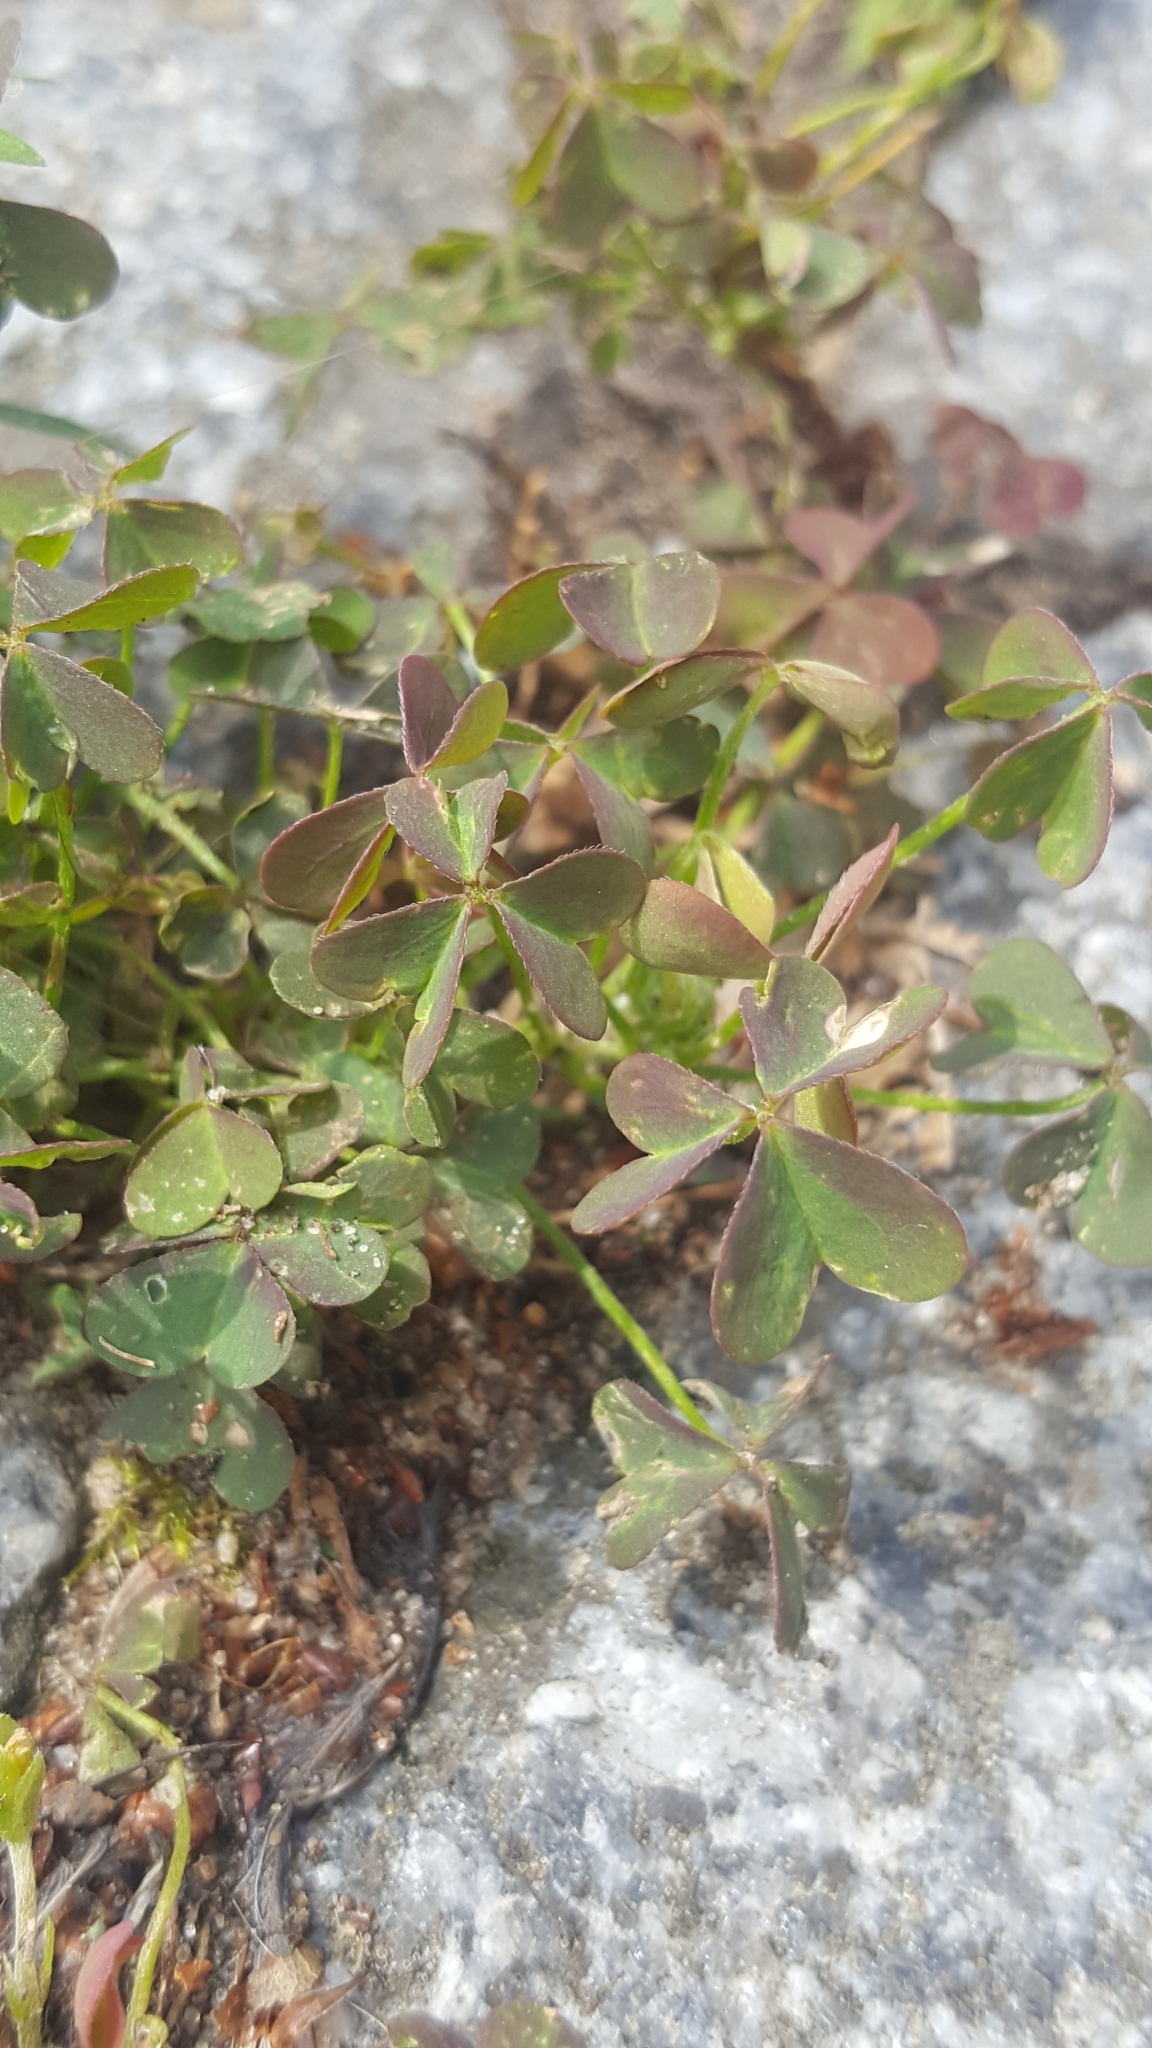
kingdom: Plantae
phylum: Tracheophyta
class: Magnoliopsida
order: Oxalidales
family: Oxalidaceae
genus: Oxalis
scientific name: Oxalis corniculata
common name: Procumbent yellow-sorrel
